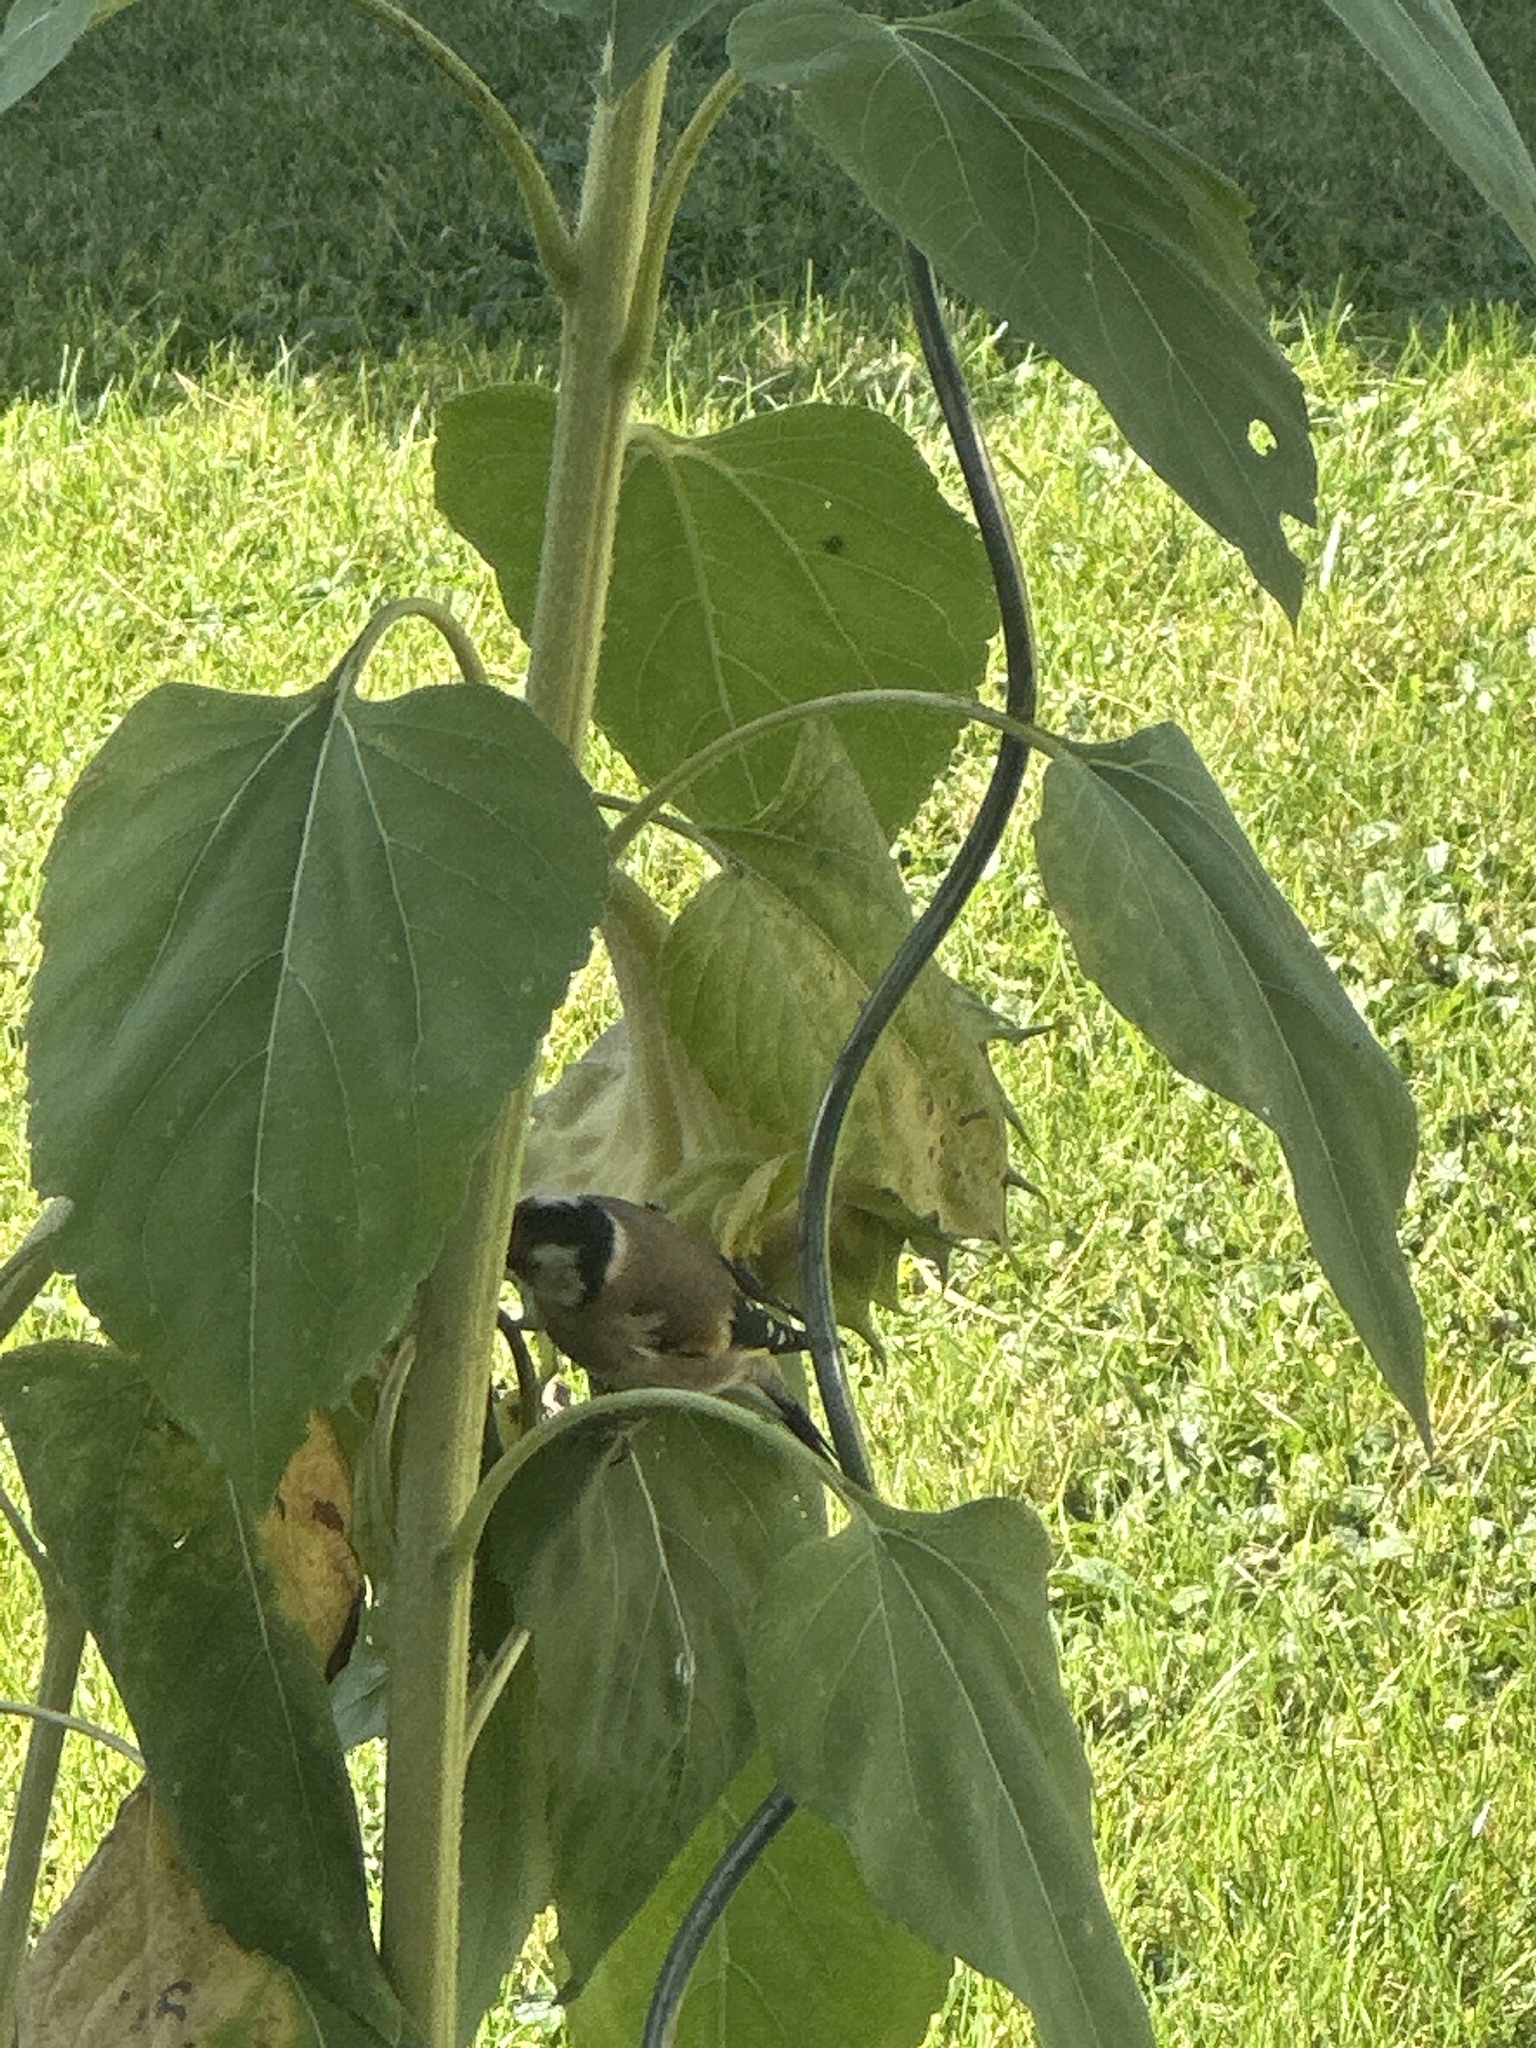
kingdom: Animalia
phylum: Chordata
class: Aves
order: Passeriformes
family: Fringillidae
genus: Carduelis
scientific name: Carduelis carduelis
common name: European goldfinch
